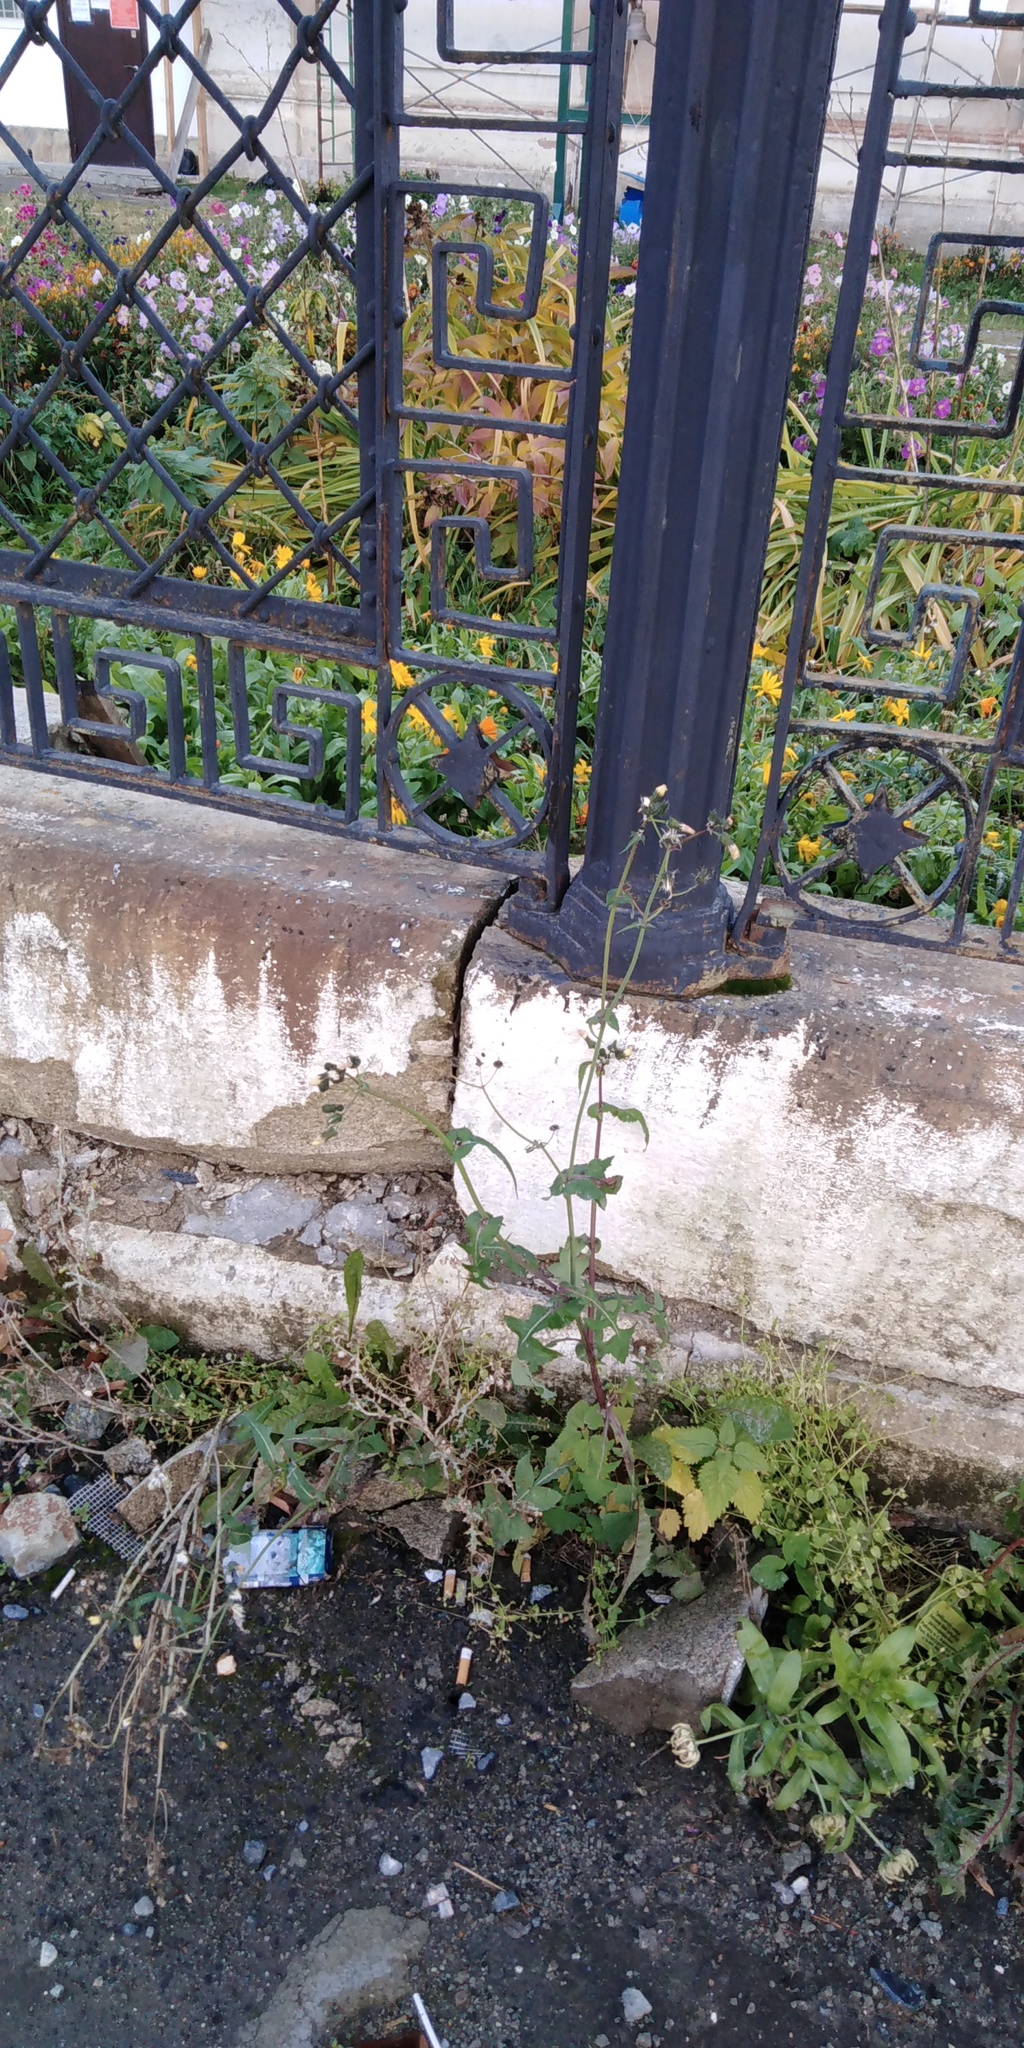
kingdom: Plantae
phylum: Tracheophyta
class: Magnoliopsida
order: Asterales
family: Asteraceae
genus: Sonchus
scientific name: Sonchus oleraceus
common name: Common sowthistle
